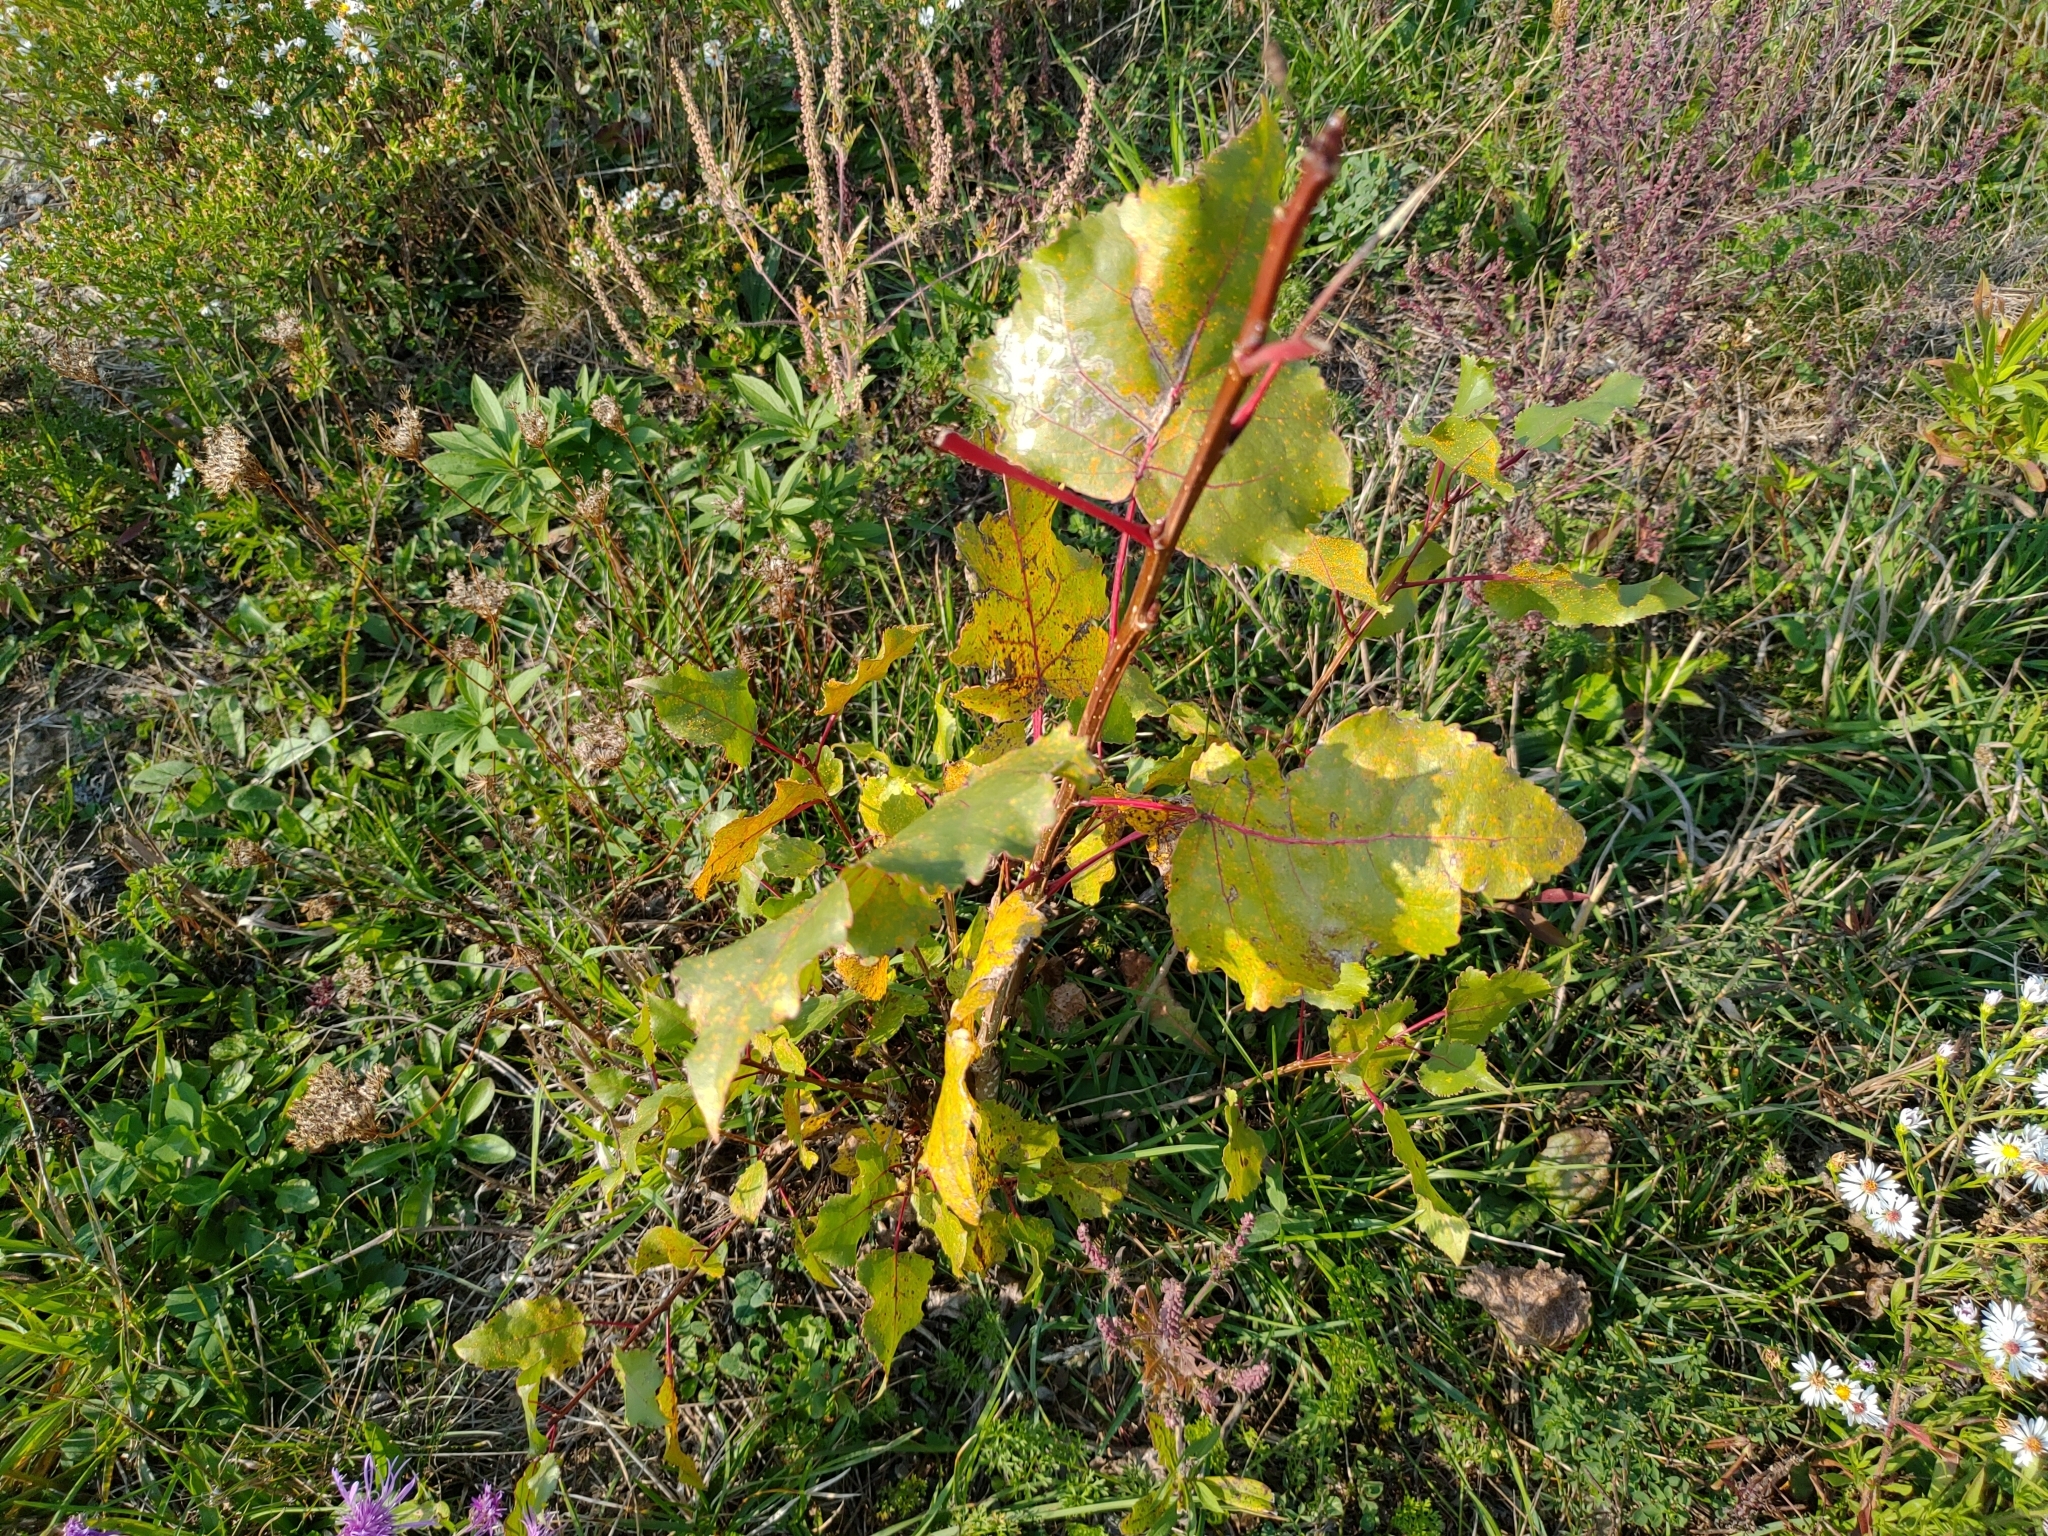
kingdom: Plantae
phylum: Tracheophyta
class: Magnoliopsida
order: Malpighiales
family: Salicaceae
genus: Populus
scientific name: Populus deltoides
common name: Eastern cottonwood
